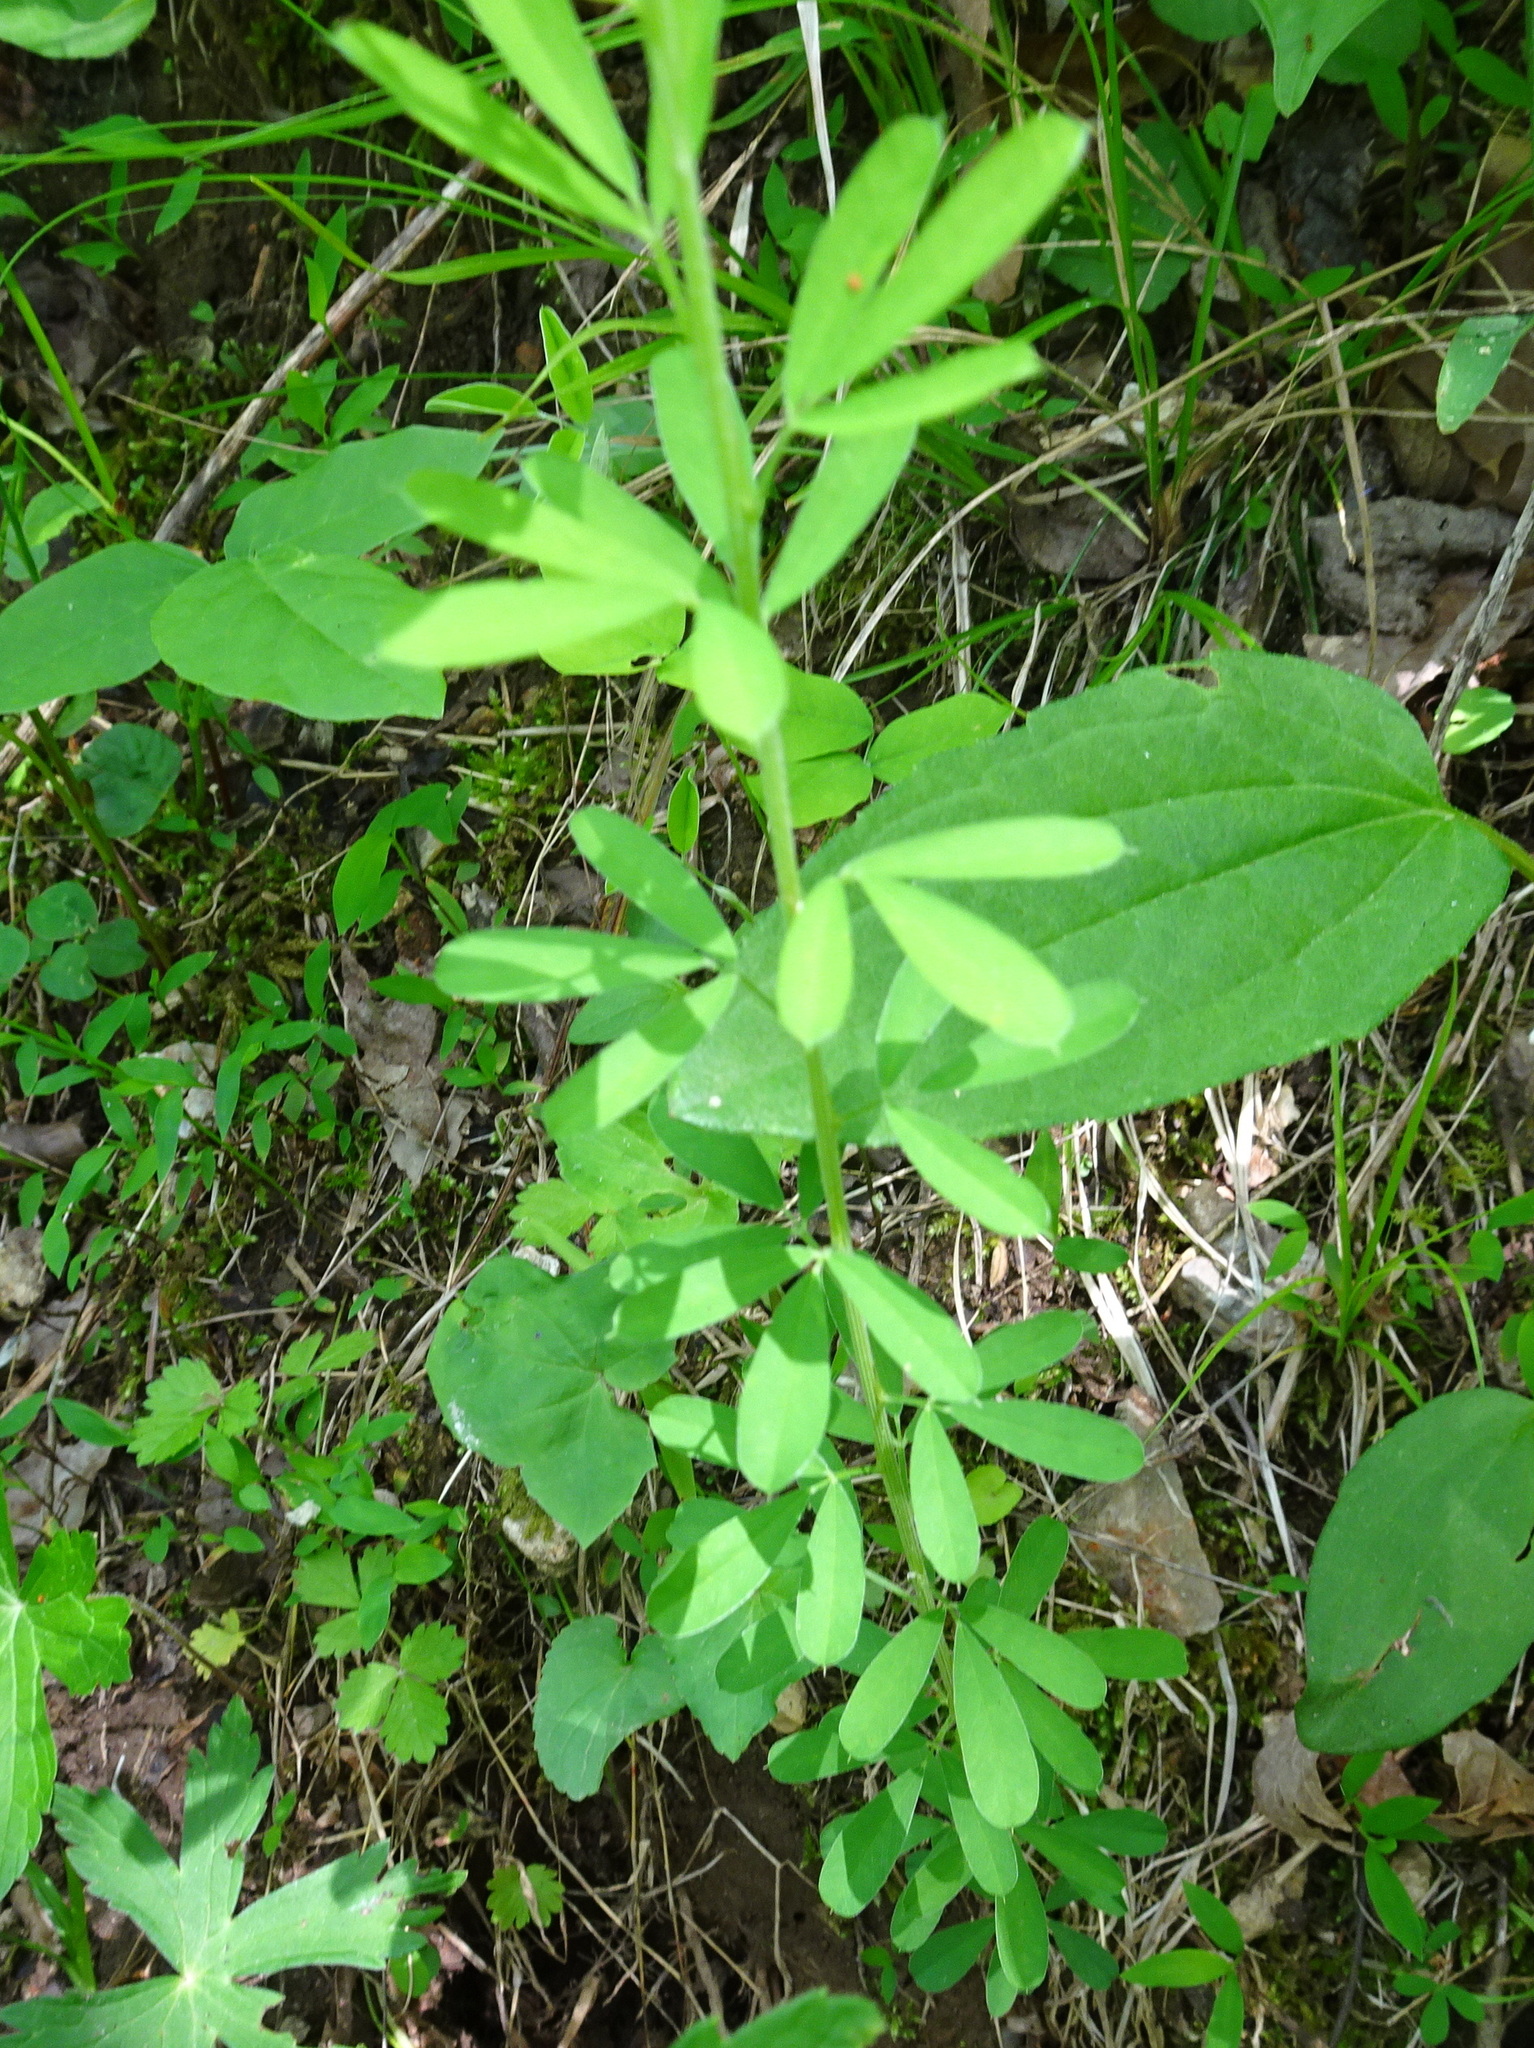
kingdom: Plantae
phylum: Tracheophyta
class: Magnoliopsida
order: Fabales
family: Fabaceae
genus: Lespedeza
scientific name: Lespedeza cuneata
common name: Chinese bush-clover
